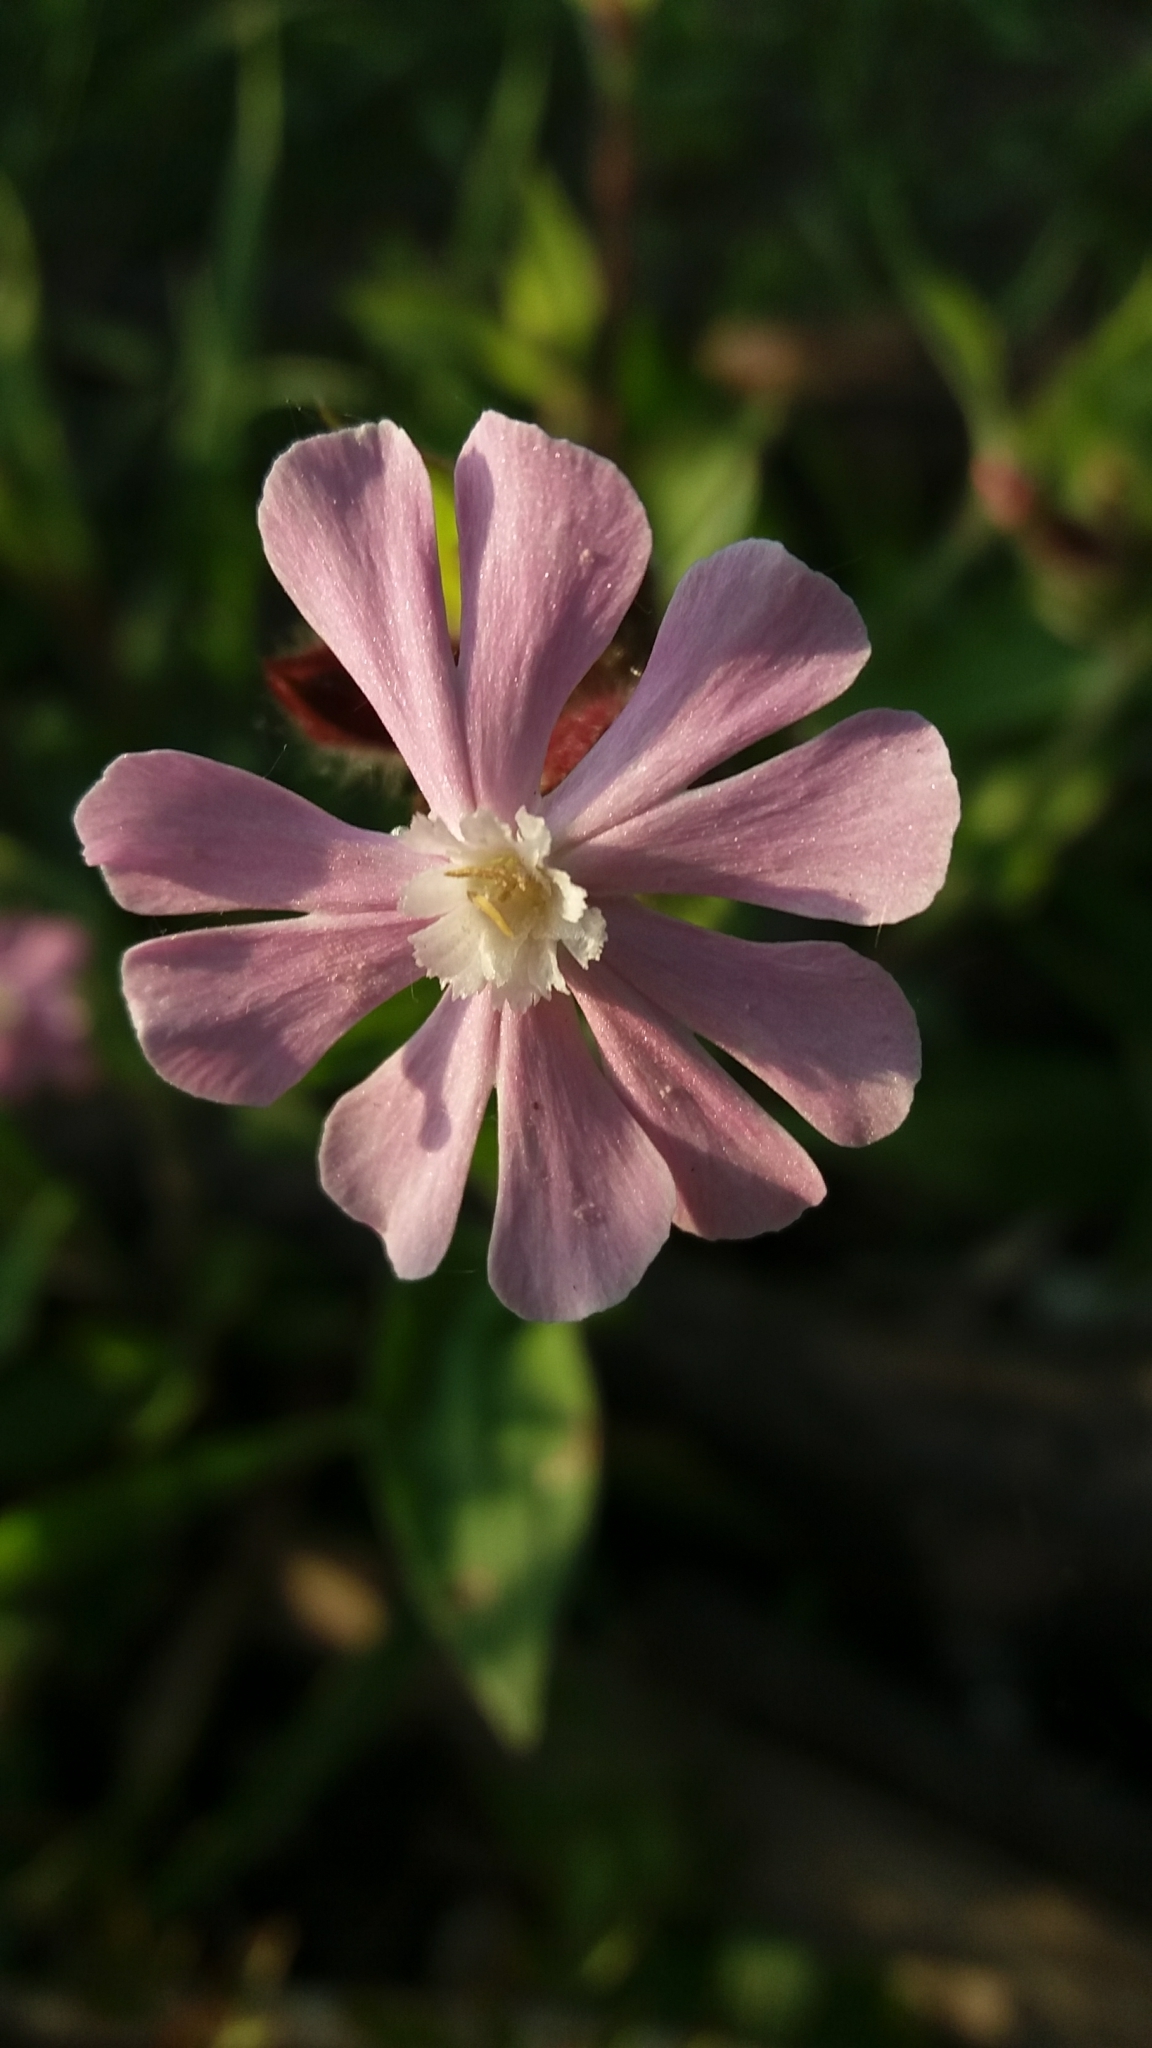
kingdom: Plantae
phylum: Tracheophyta
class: Magnoliopsida
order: Caryophyllales
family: Caryophyllaceae
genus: Silene
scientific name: Silene dioica
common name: Red campion
